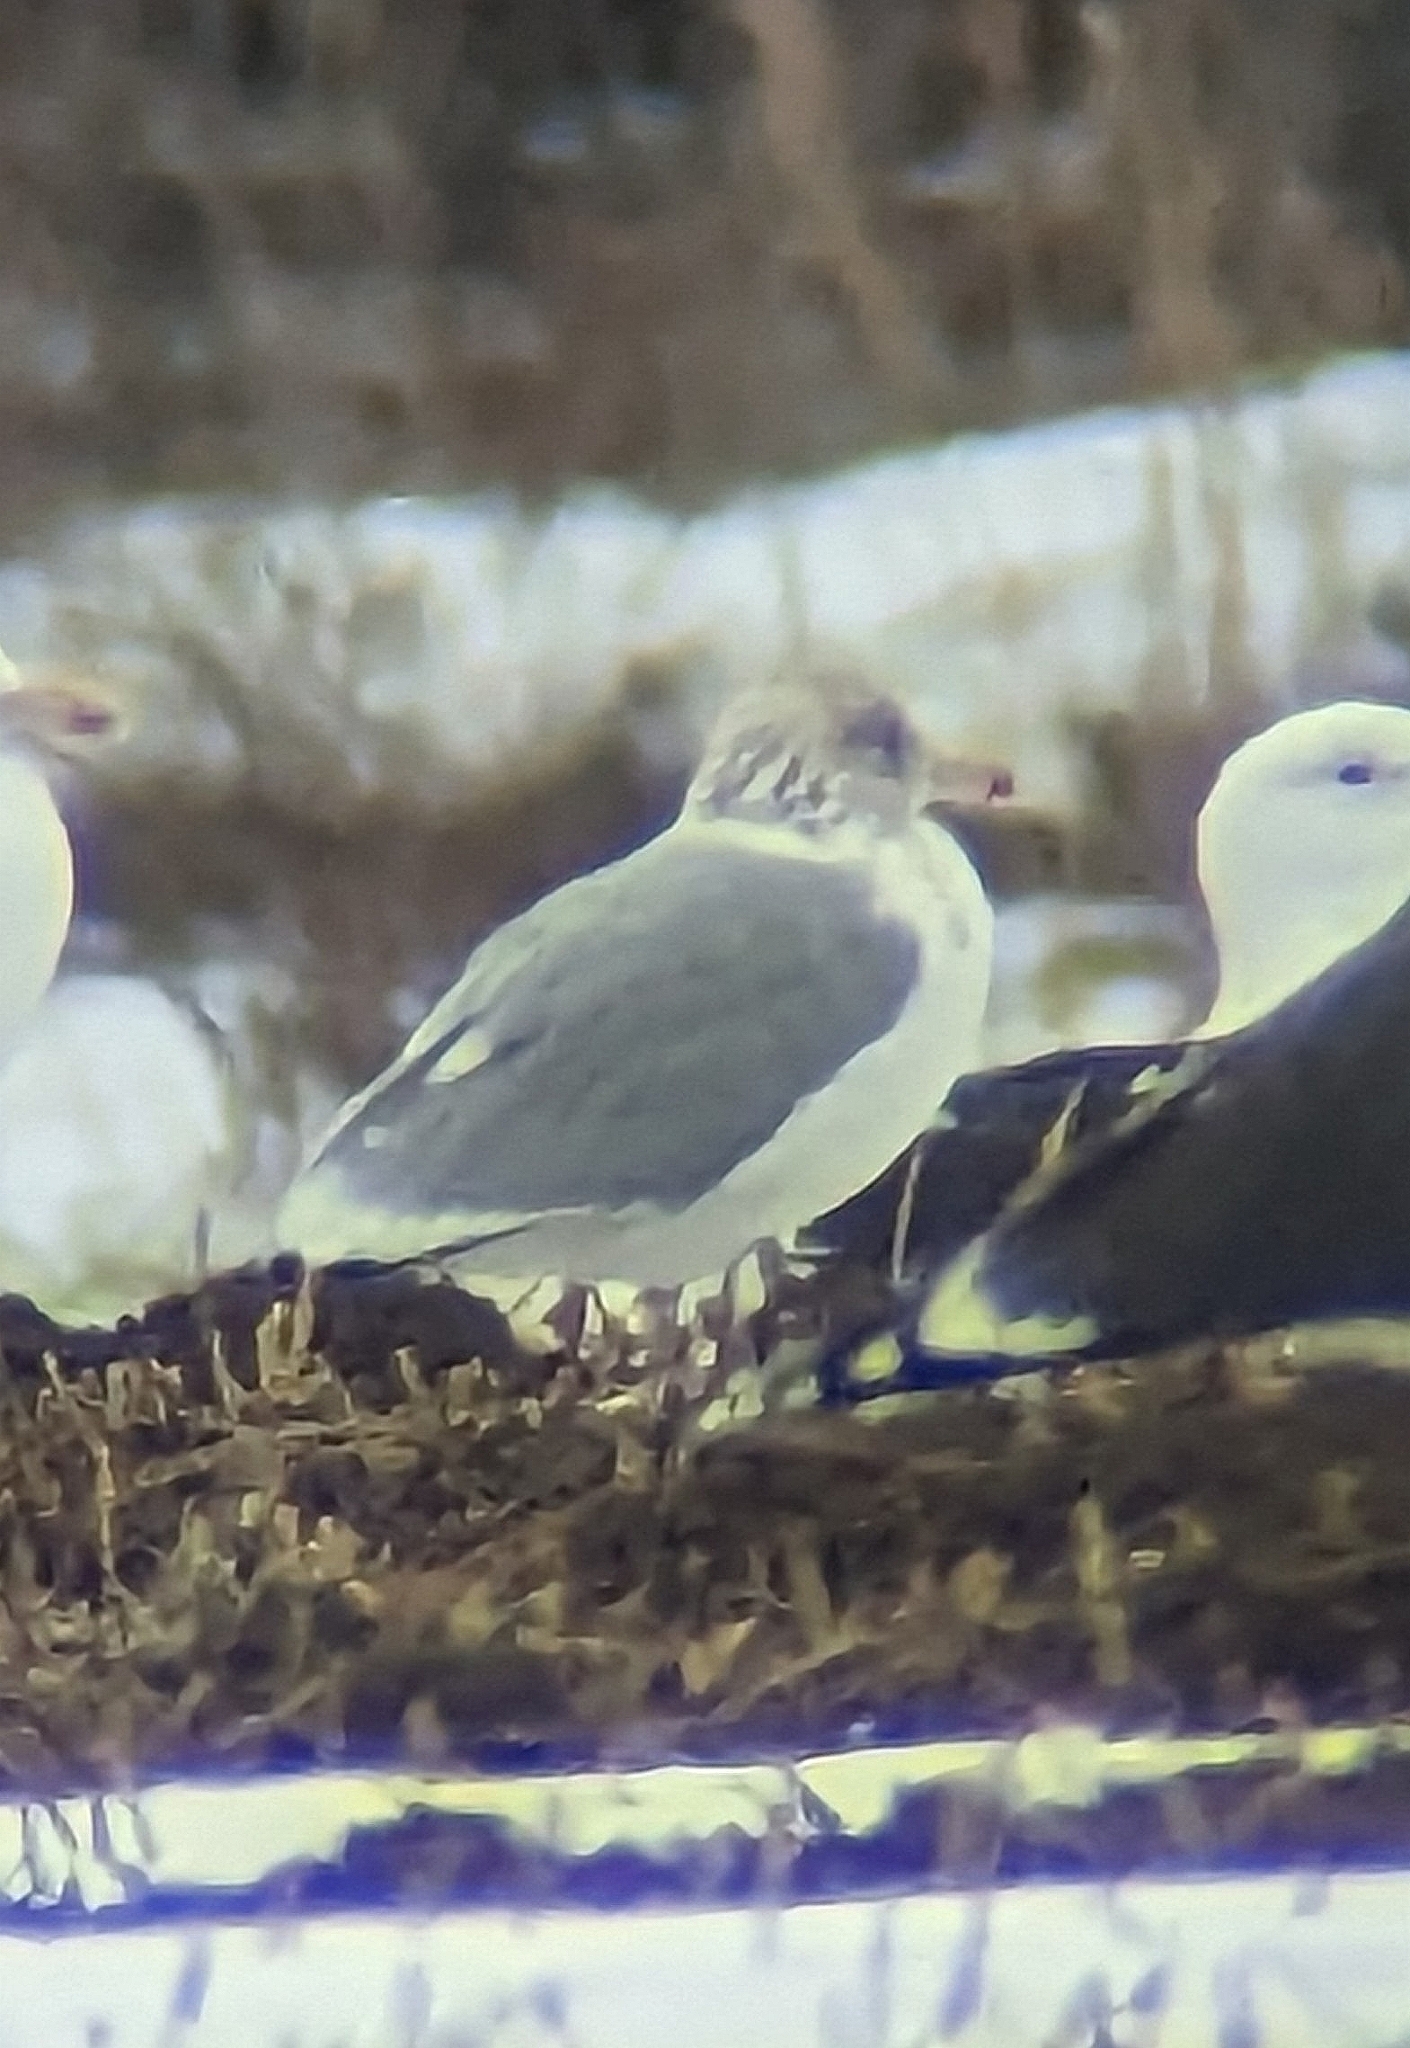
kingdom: Animalia
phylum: Chordata
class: Aves
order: Charadriiformes
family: Laridae
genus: Larus
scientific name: Larus argentatus
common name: Herring gull
